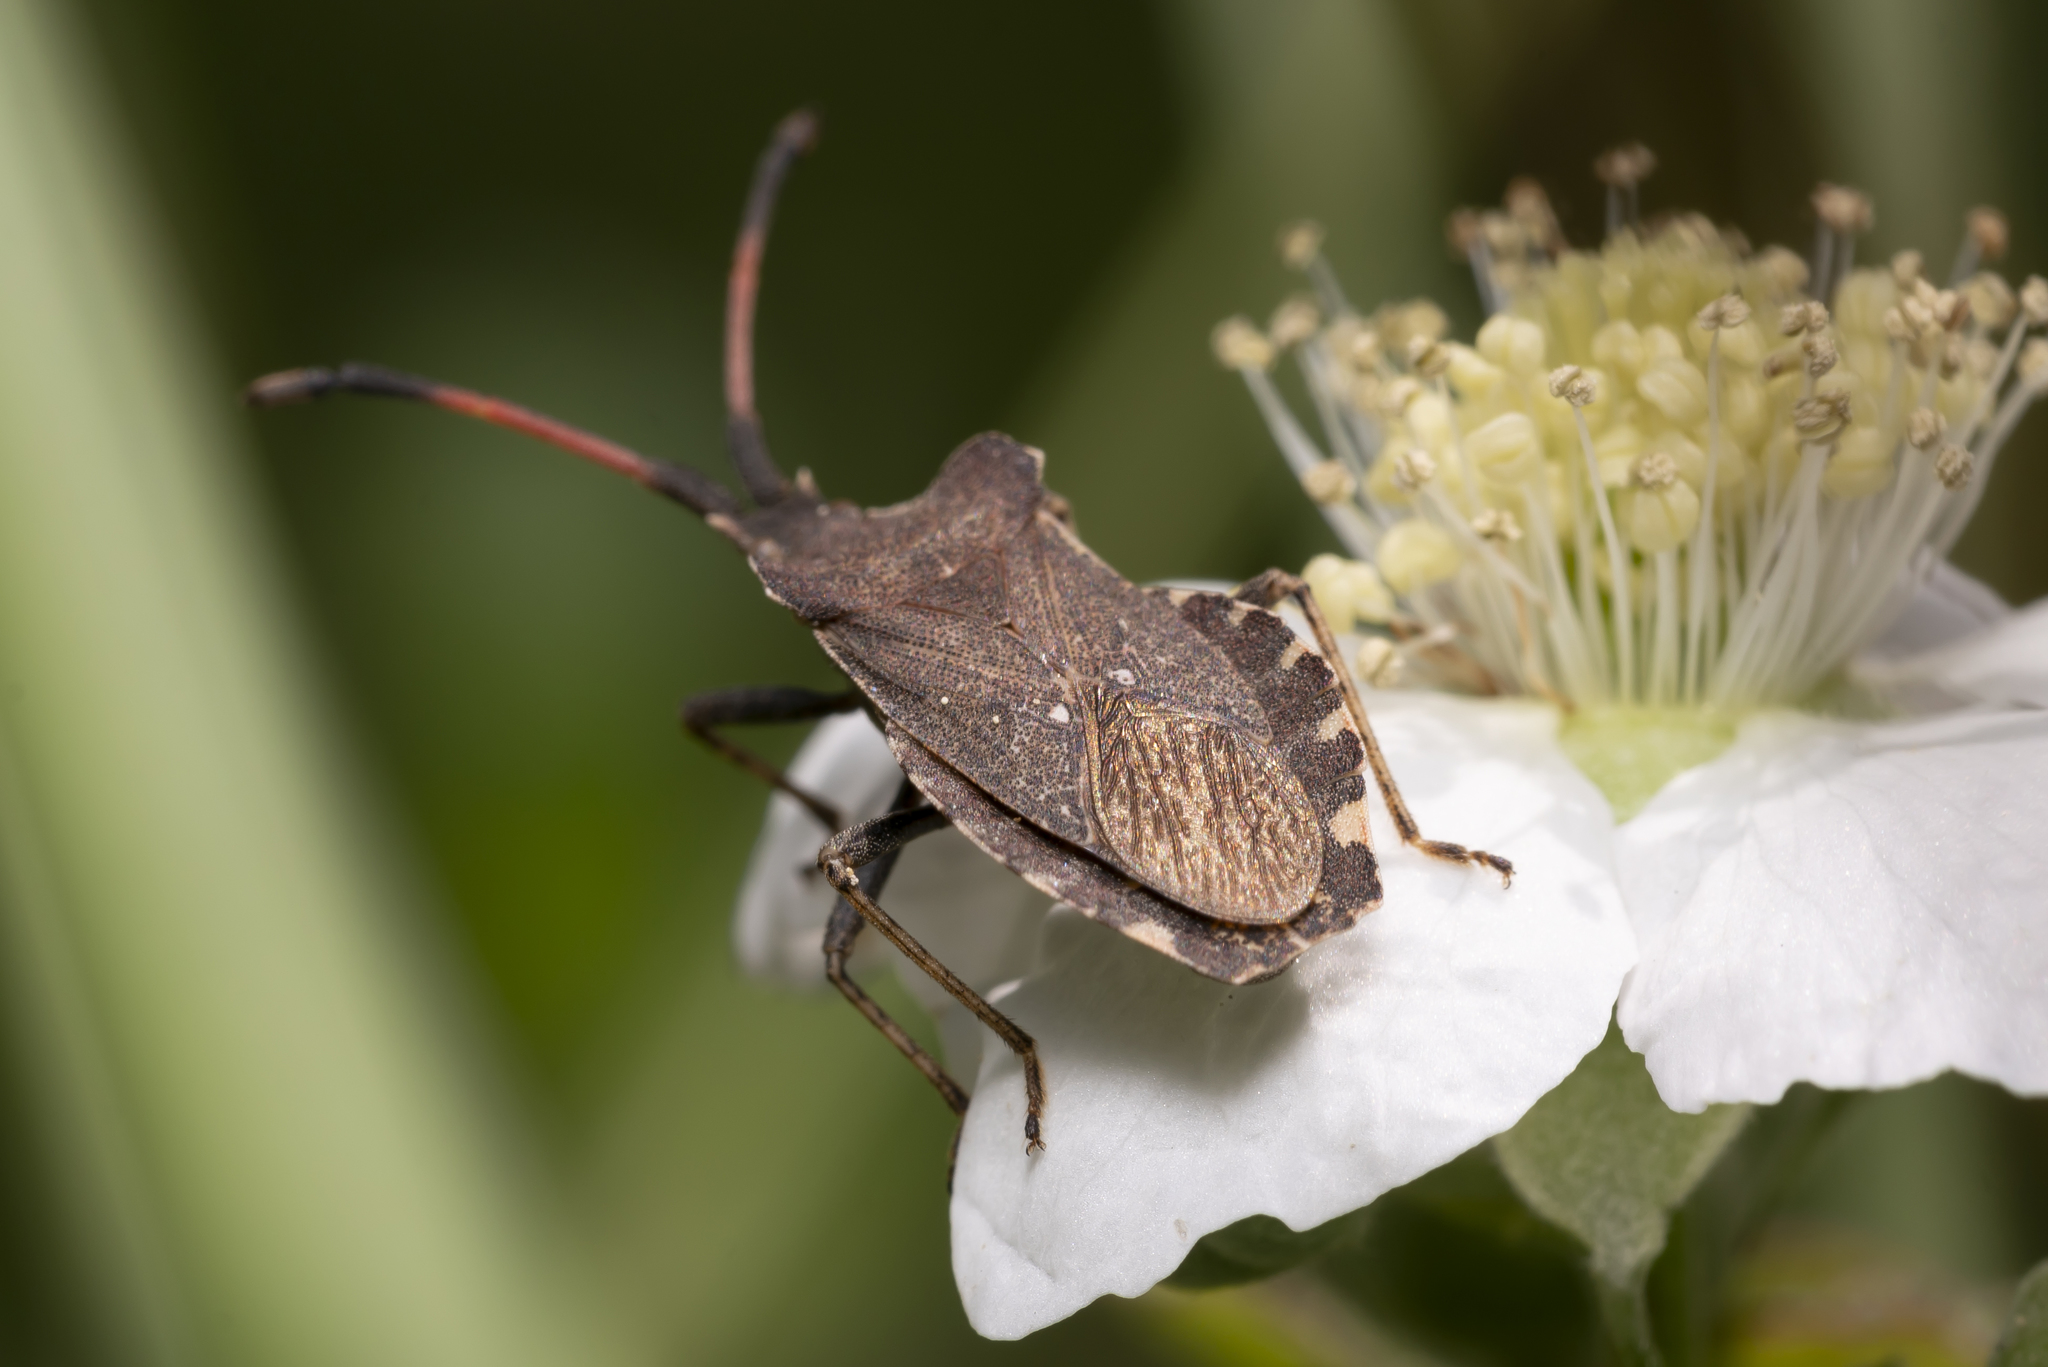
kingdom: Animalia
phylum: Arthropoda
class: Insecta
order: Hemiptera
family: Coreidae
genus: Enoplops
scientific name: Enoplops scapha
